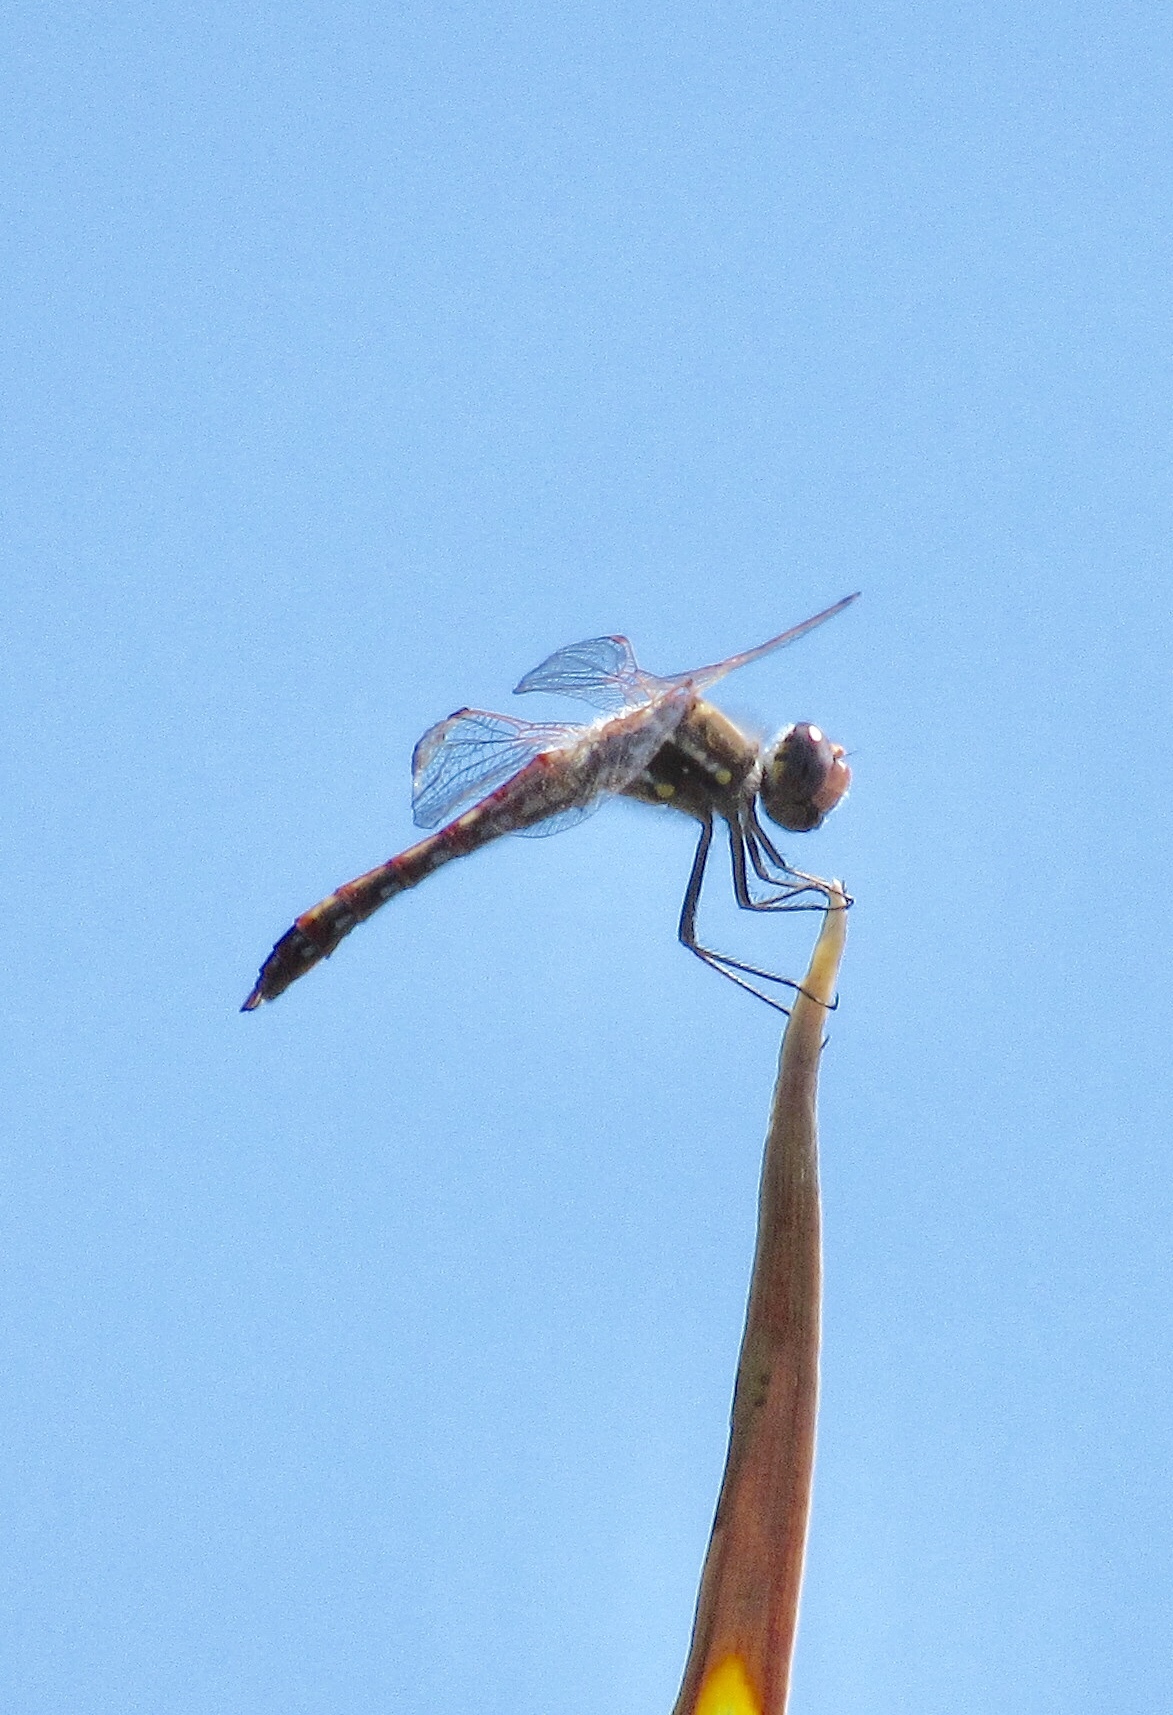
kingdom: Animalia
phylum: Arthropoda
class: Insecta
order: Odonata
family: Libellulidae
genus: Sympetrum
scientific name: Sympetrum corruptum
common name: Variegated meadowhawk
